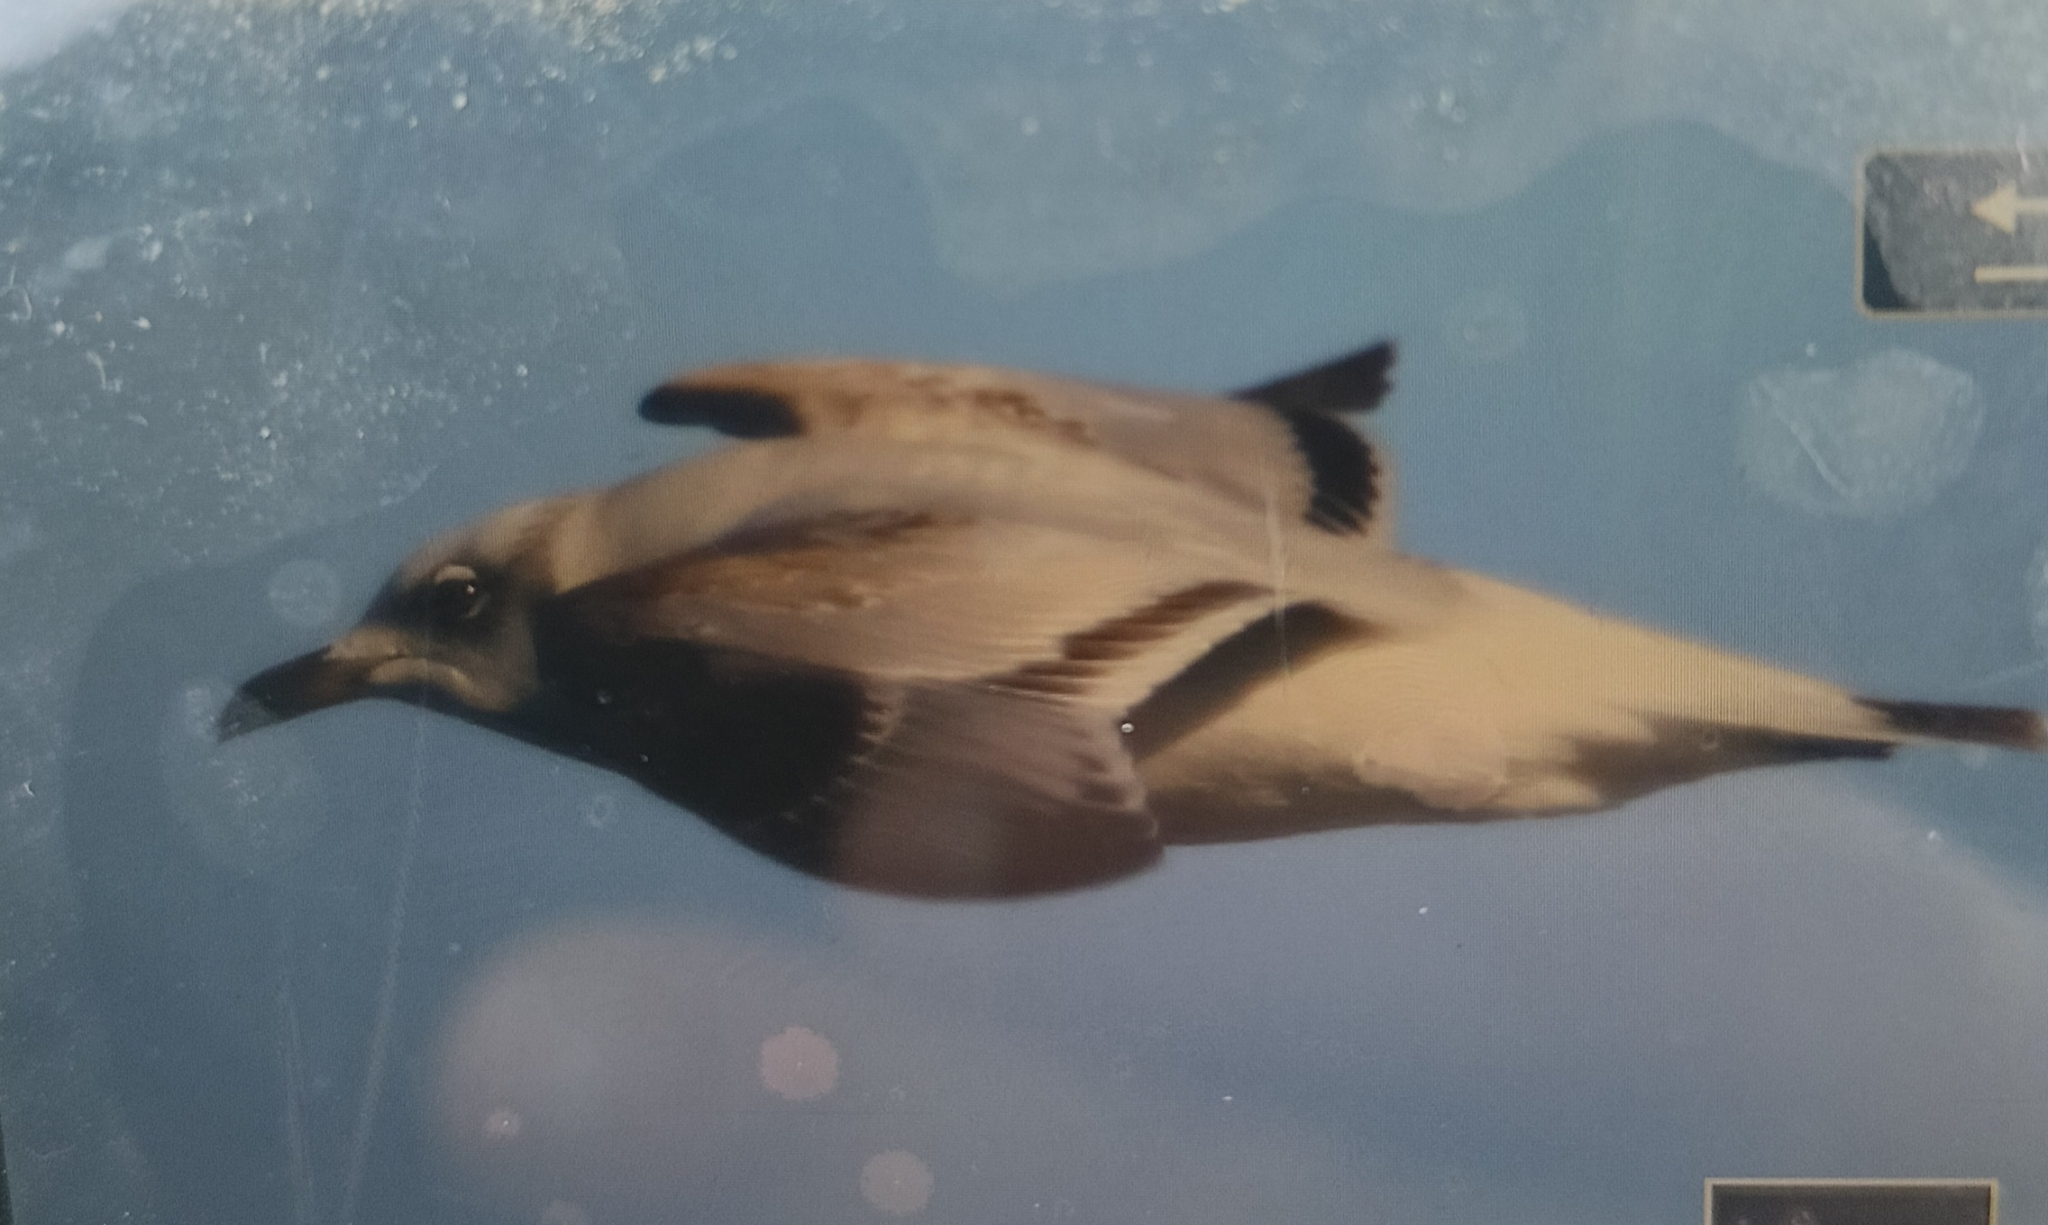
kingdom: Animalia
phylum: Chordata
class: Aves
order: Charadriiformes
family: Laridae
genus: Ichthyaetus
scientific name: Ichthyaetus melanocephalus
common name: Mediterranean gull
